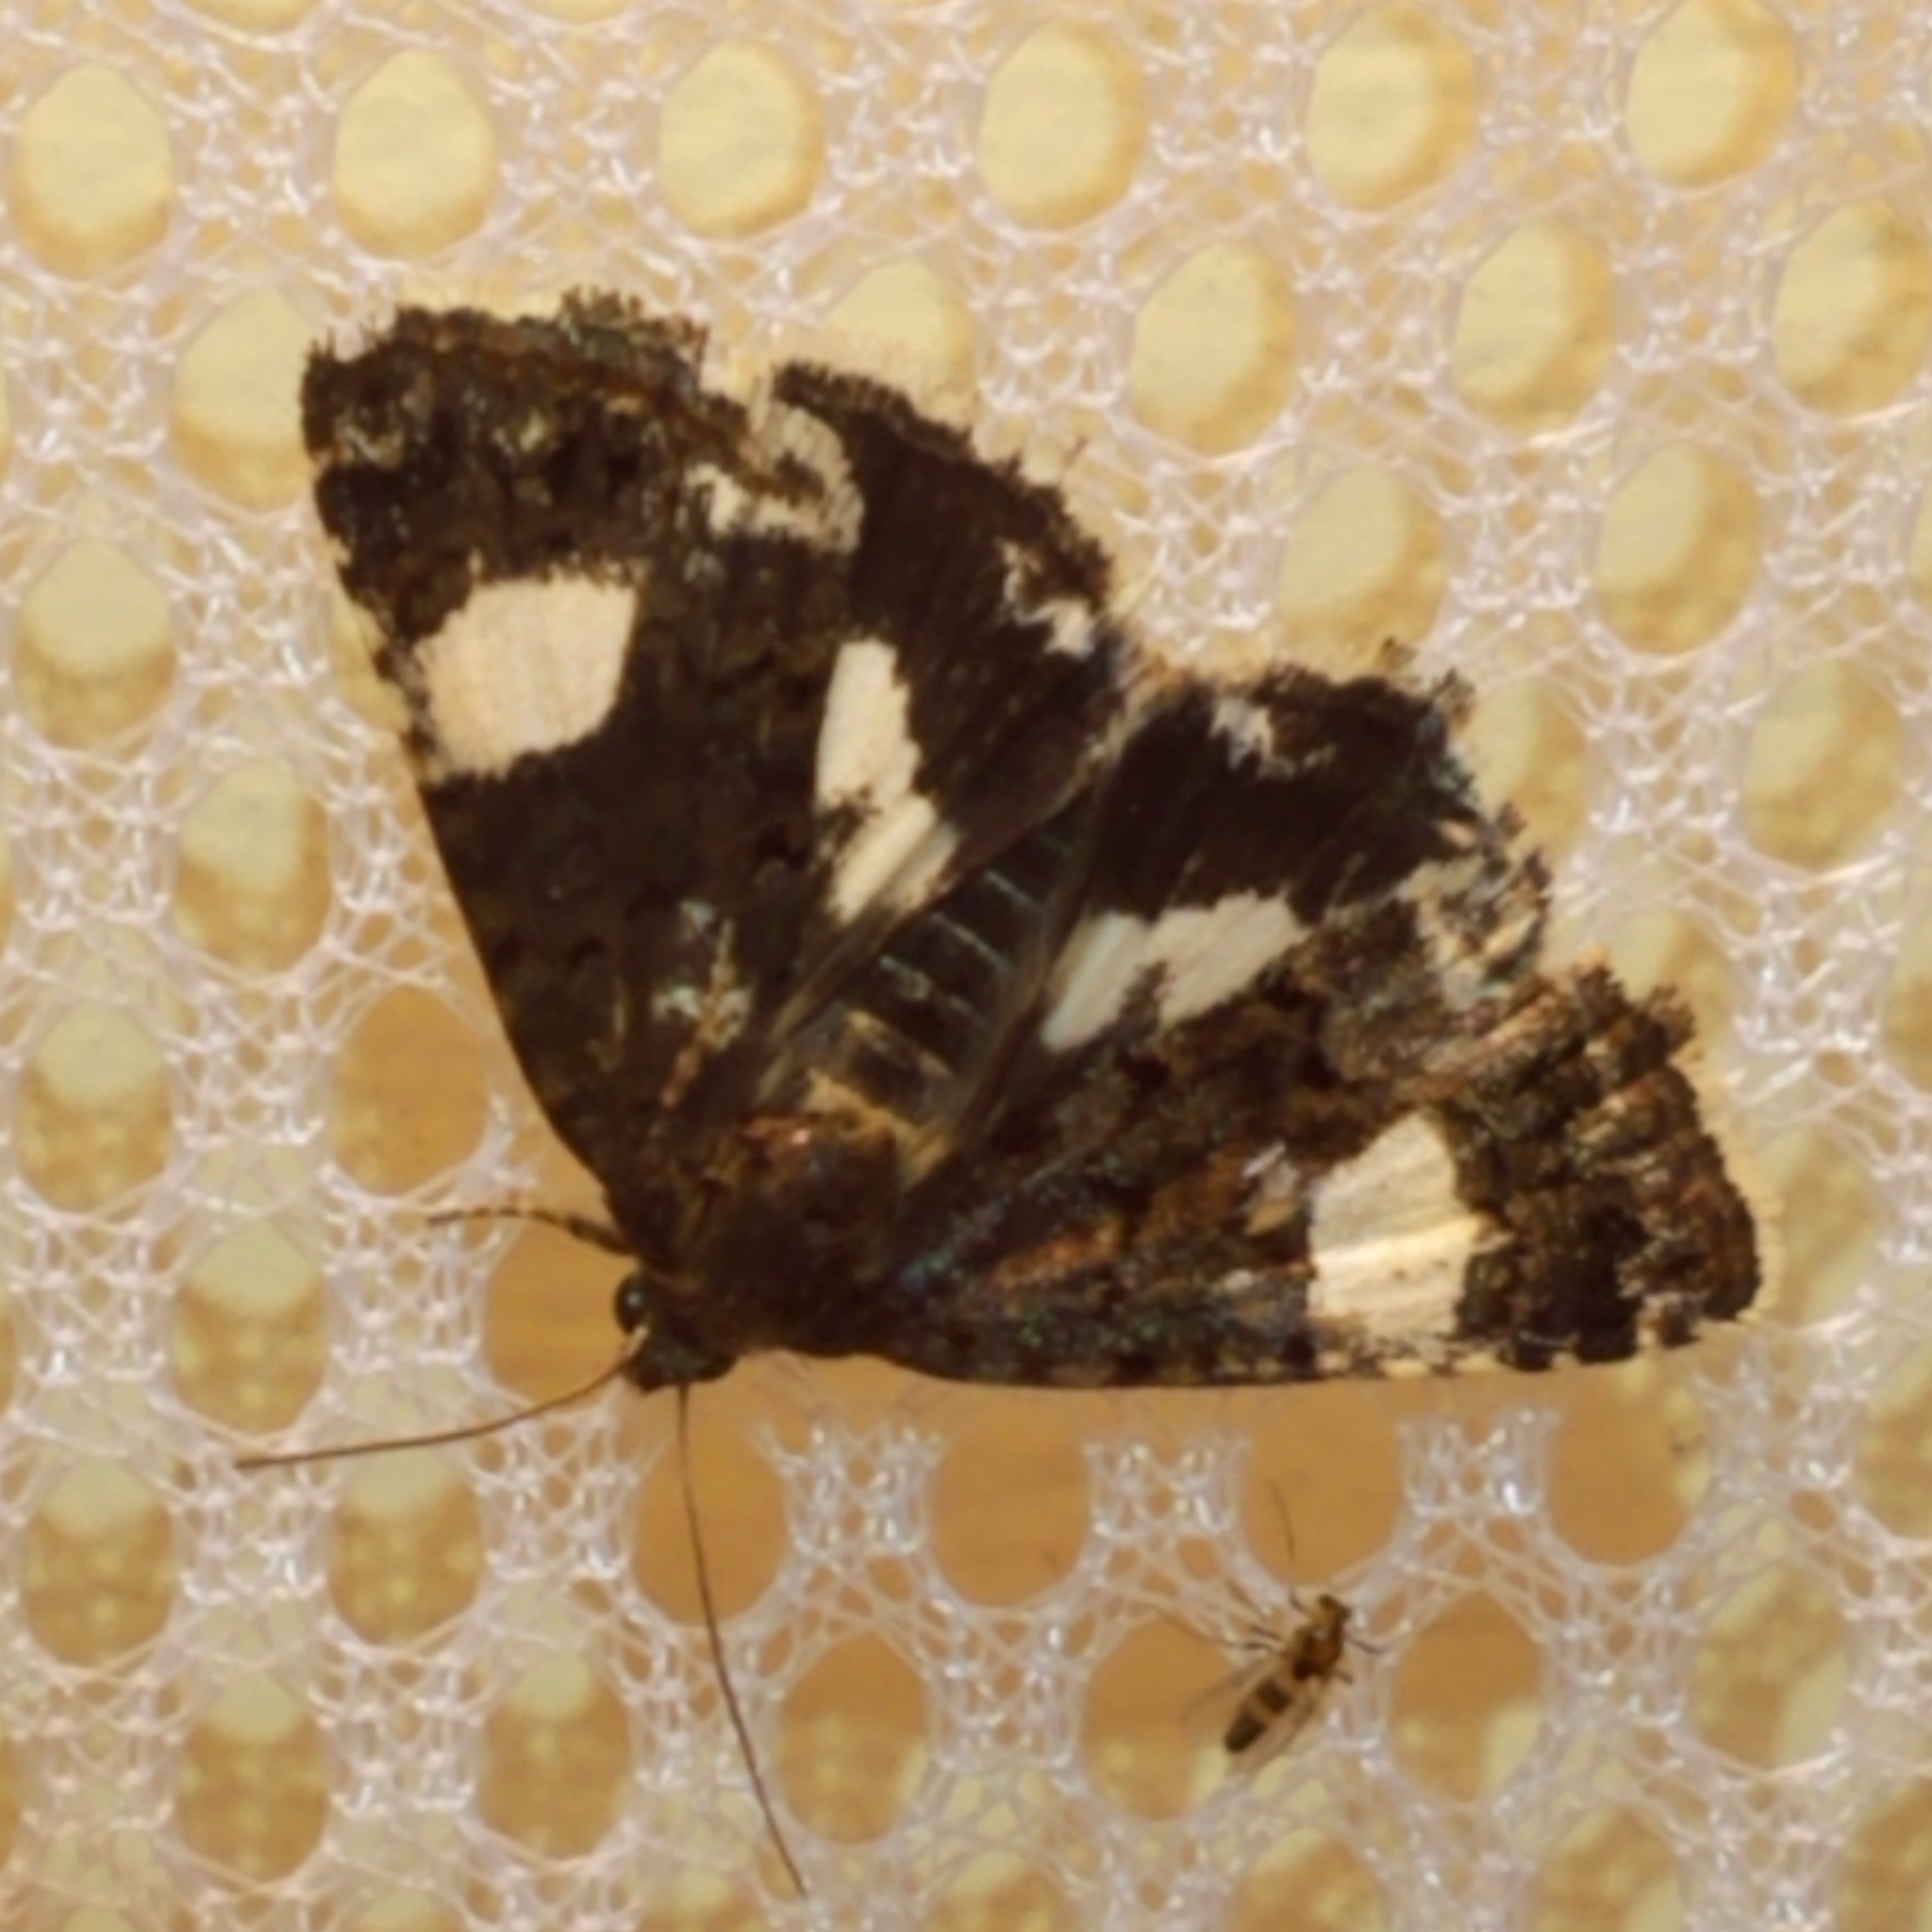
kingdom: Animalia
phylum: Arthropoda
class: Insecta
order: Lepidoptera
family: Erebidae
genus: Tyta
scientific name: Tyta luctuosa
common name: Four-spotted
